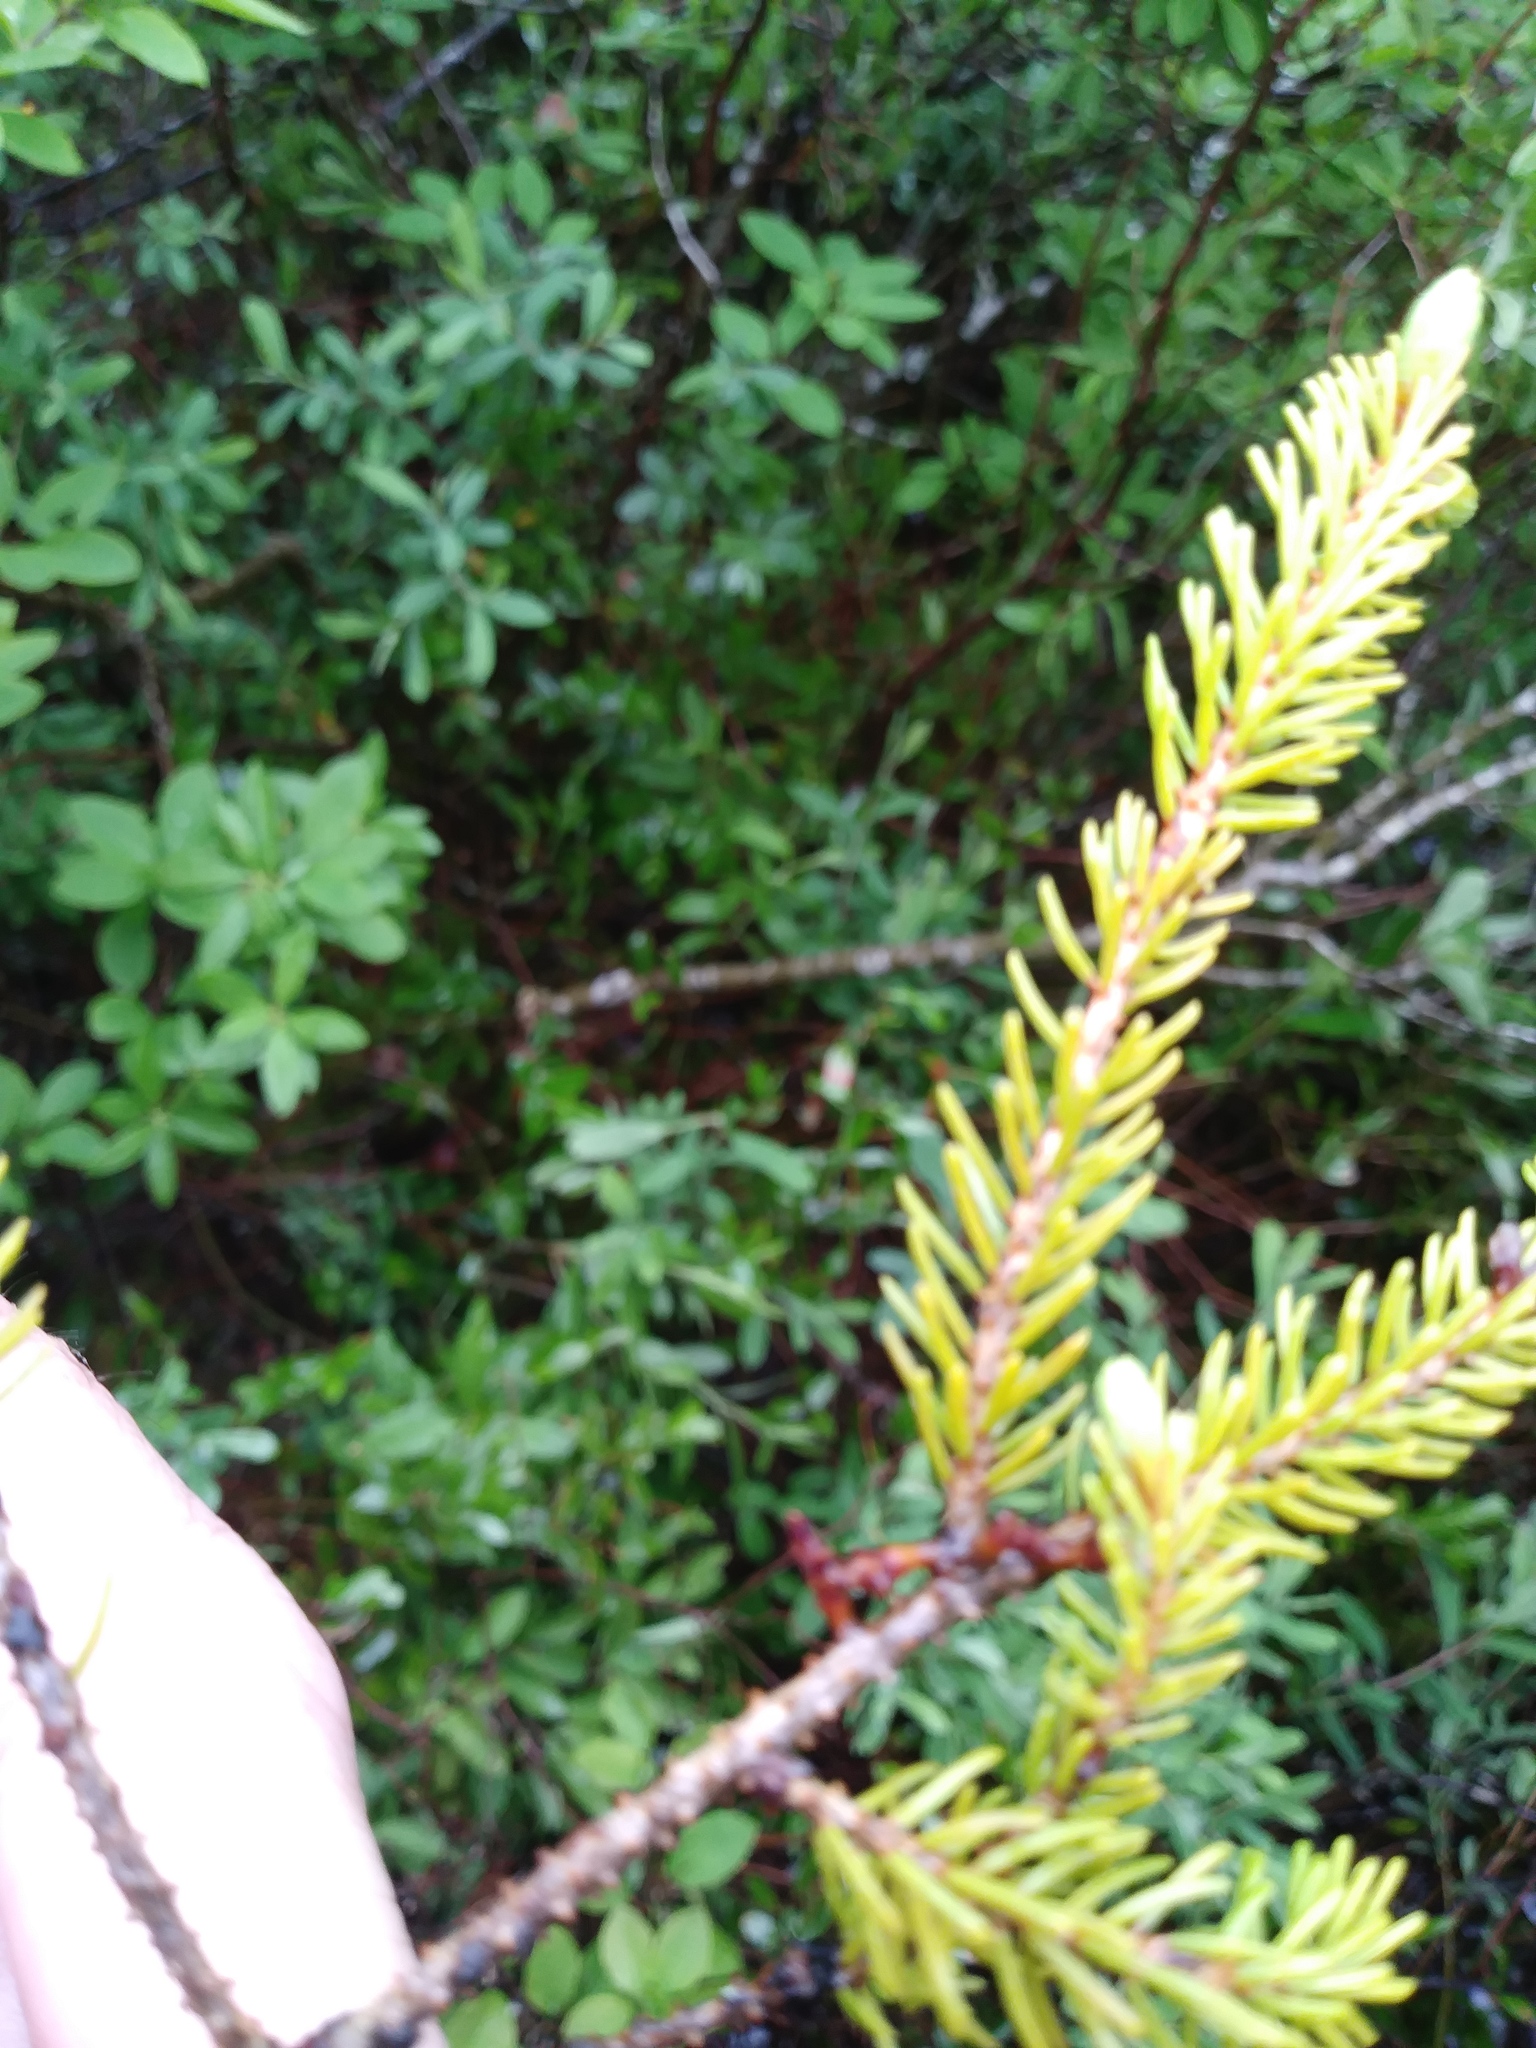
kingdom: Plantae
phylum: Tracheophyta
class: Magnoliopsida
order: Santalales
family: Viscaceae
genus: Arceuthobium
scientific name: Arceuthobium pusillum
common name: Dwarf-mistletoe
